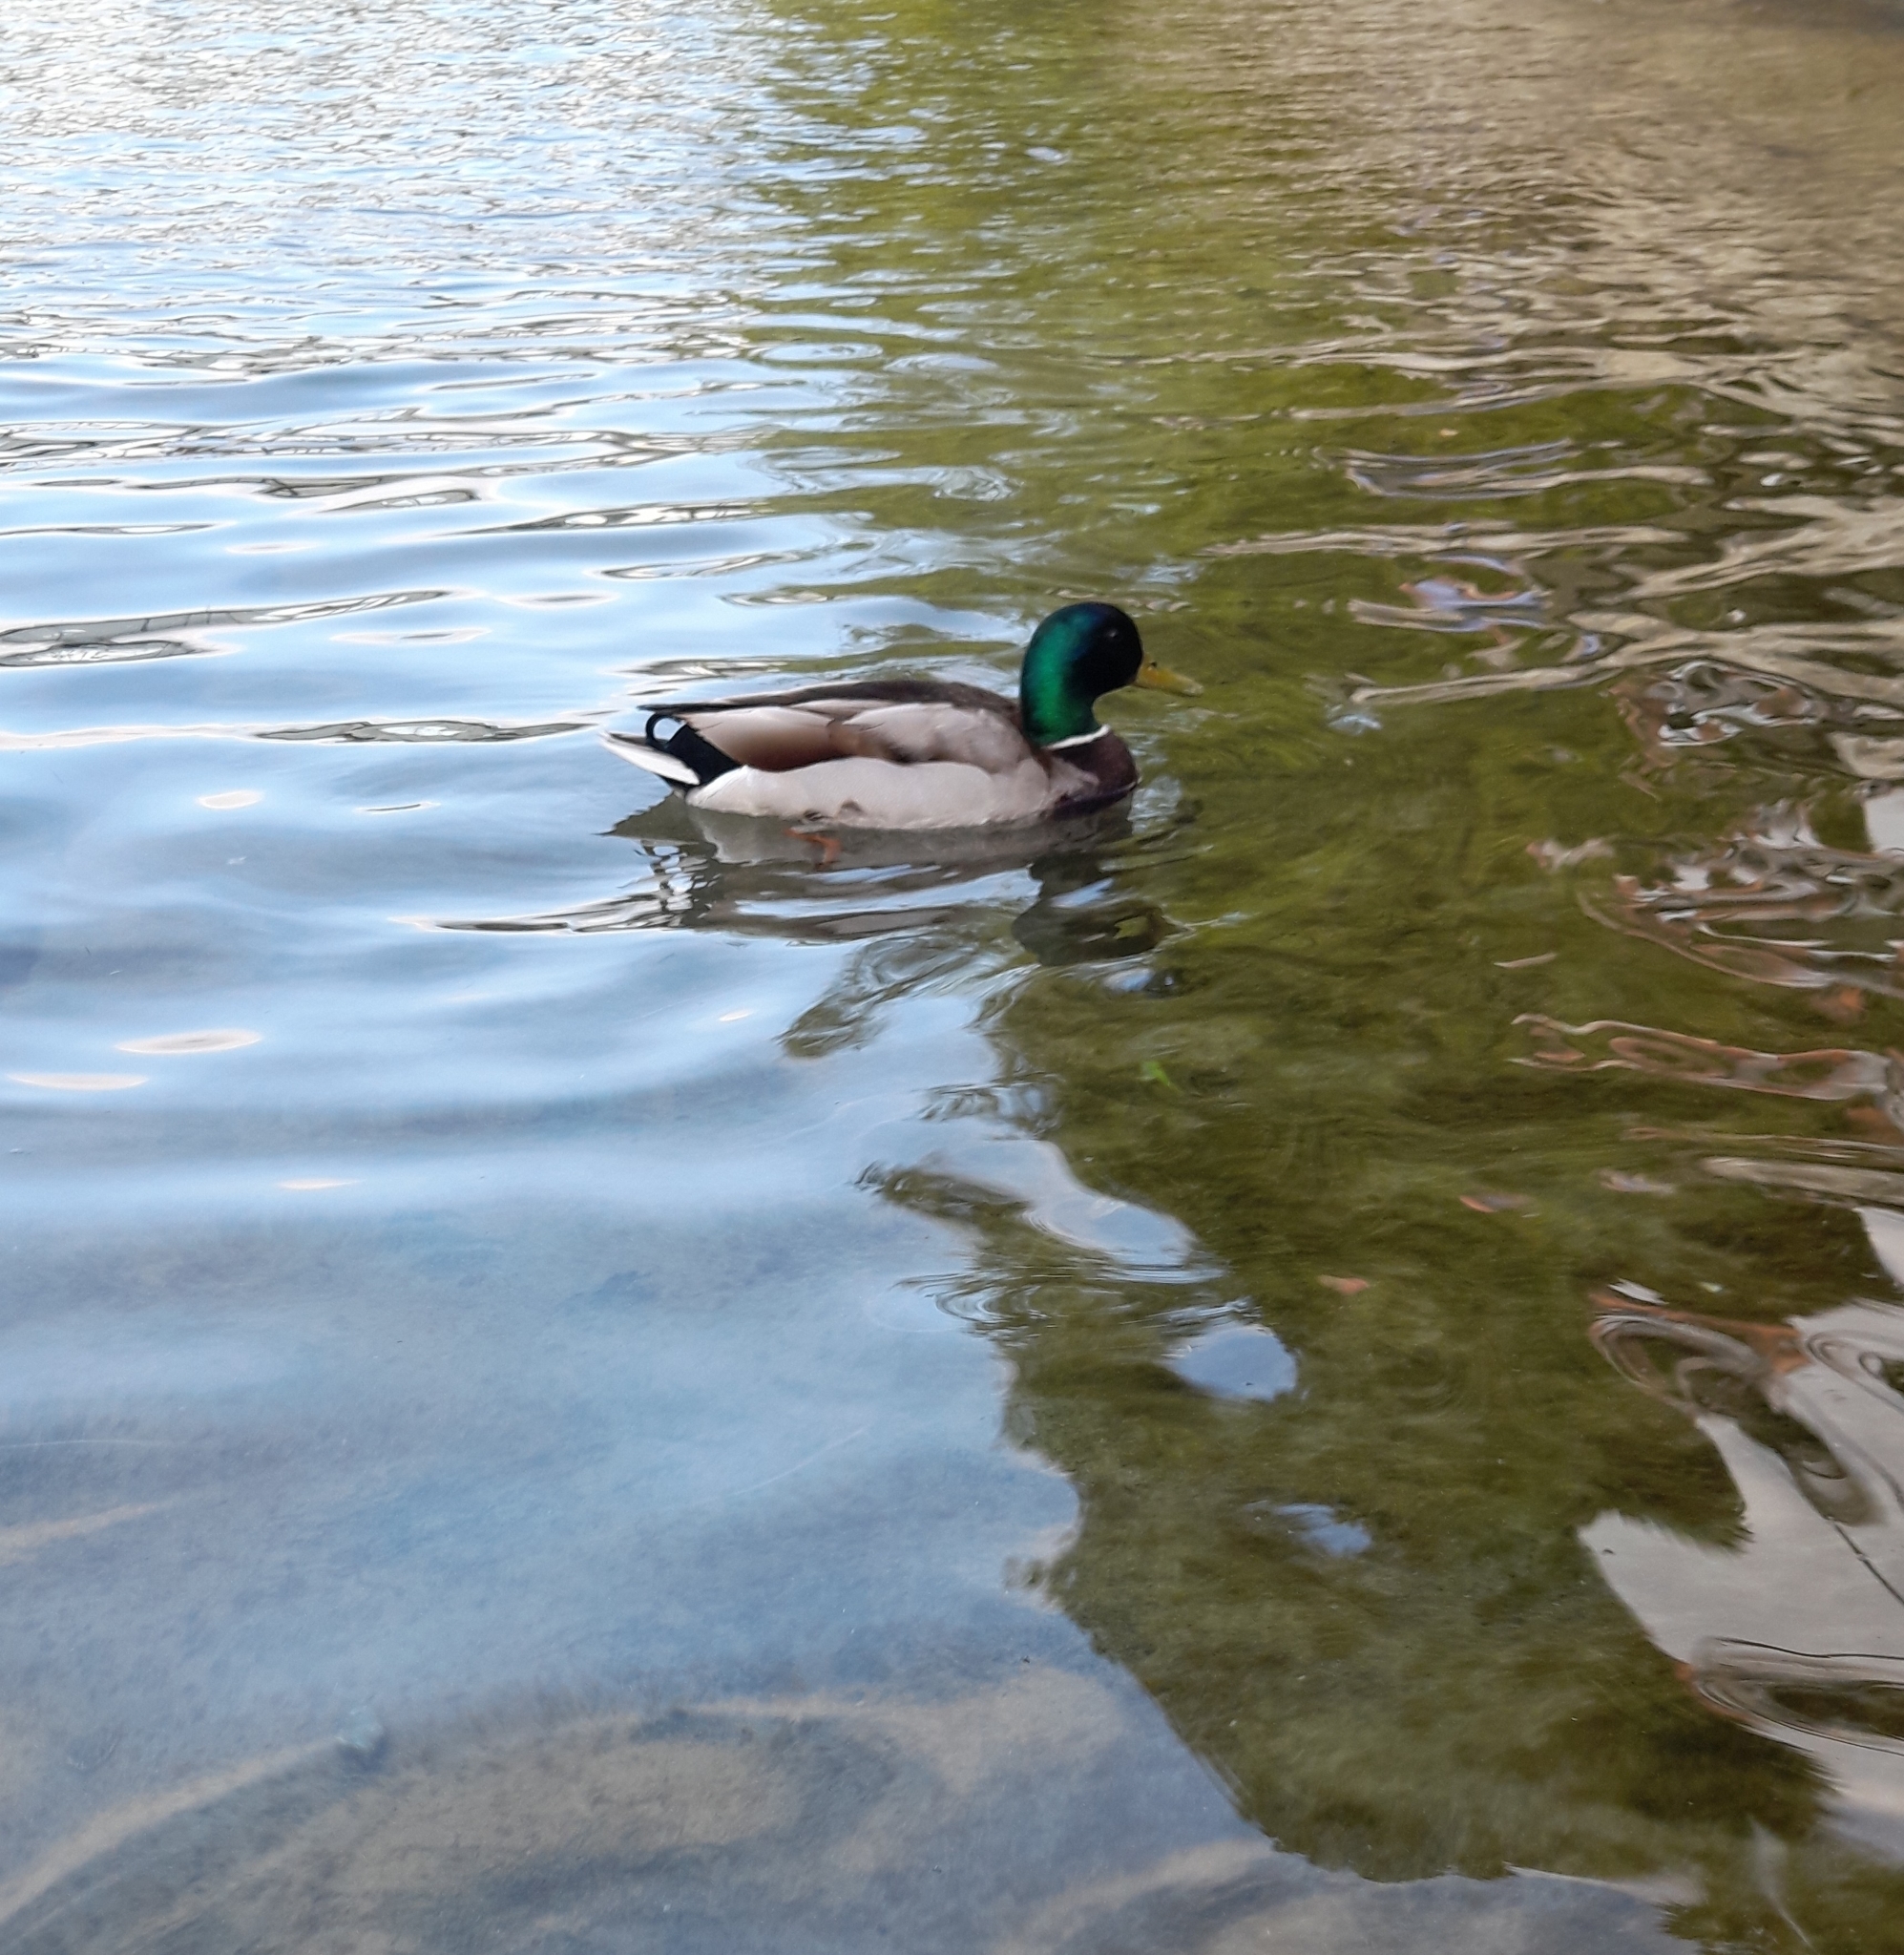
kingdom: Animalia
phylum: Chordata
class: Aves
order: Anseriformes
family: Anatidae
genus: Anas
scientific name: Anas platyrhynchos
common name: Mallard
